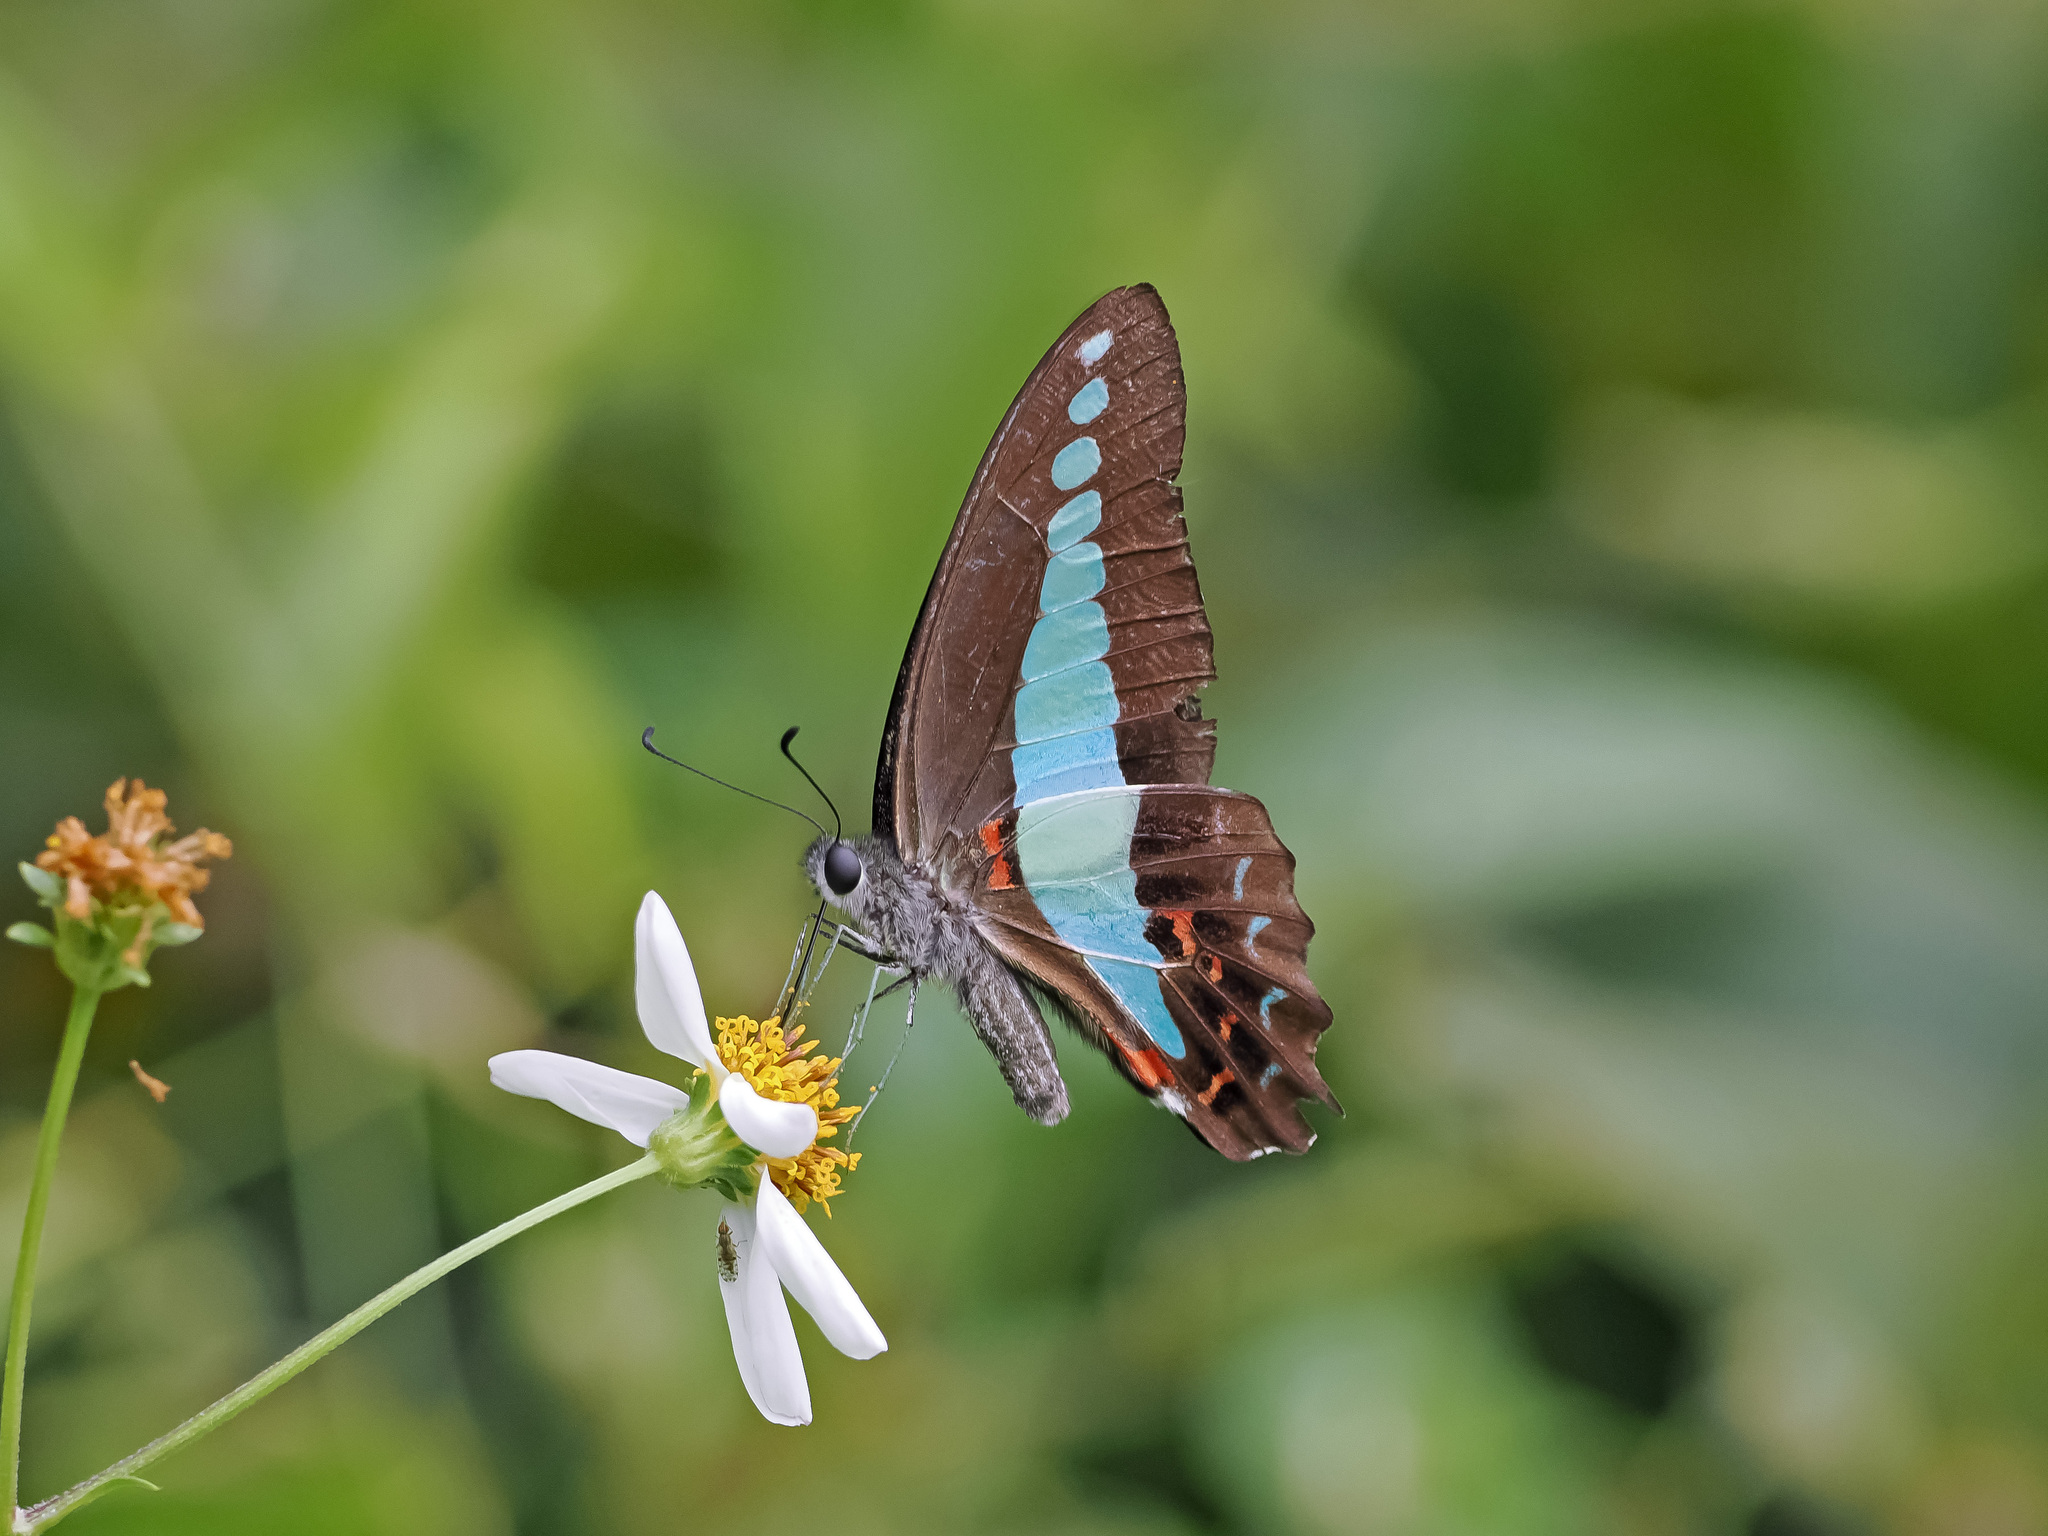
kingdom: Fungi
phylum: Ascomycota
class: Sordariomycetes
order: Microascales
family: Microascaceae
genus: Graphium
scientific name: Graphium sarpedon
